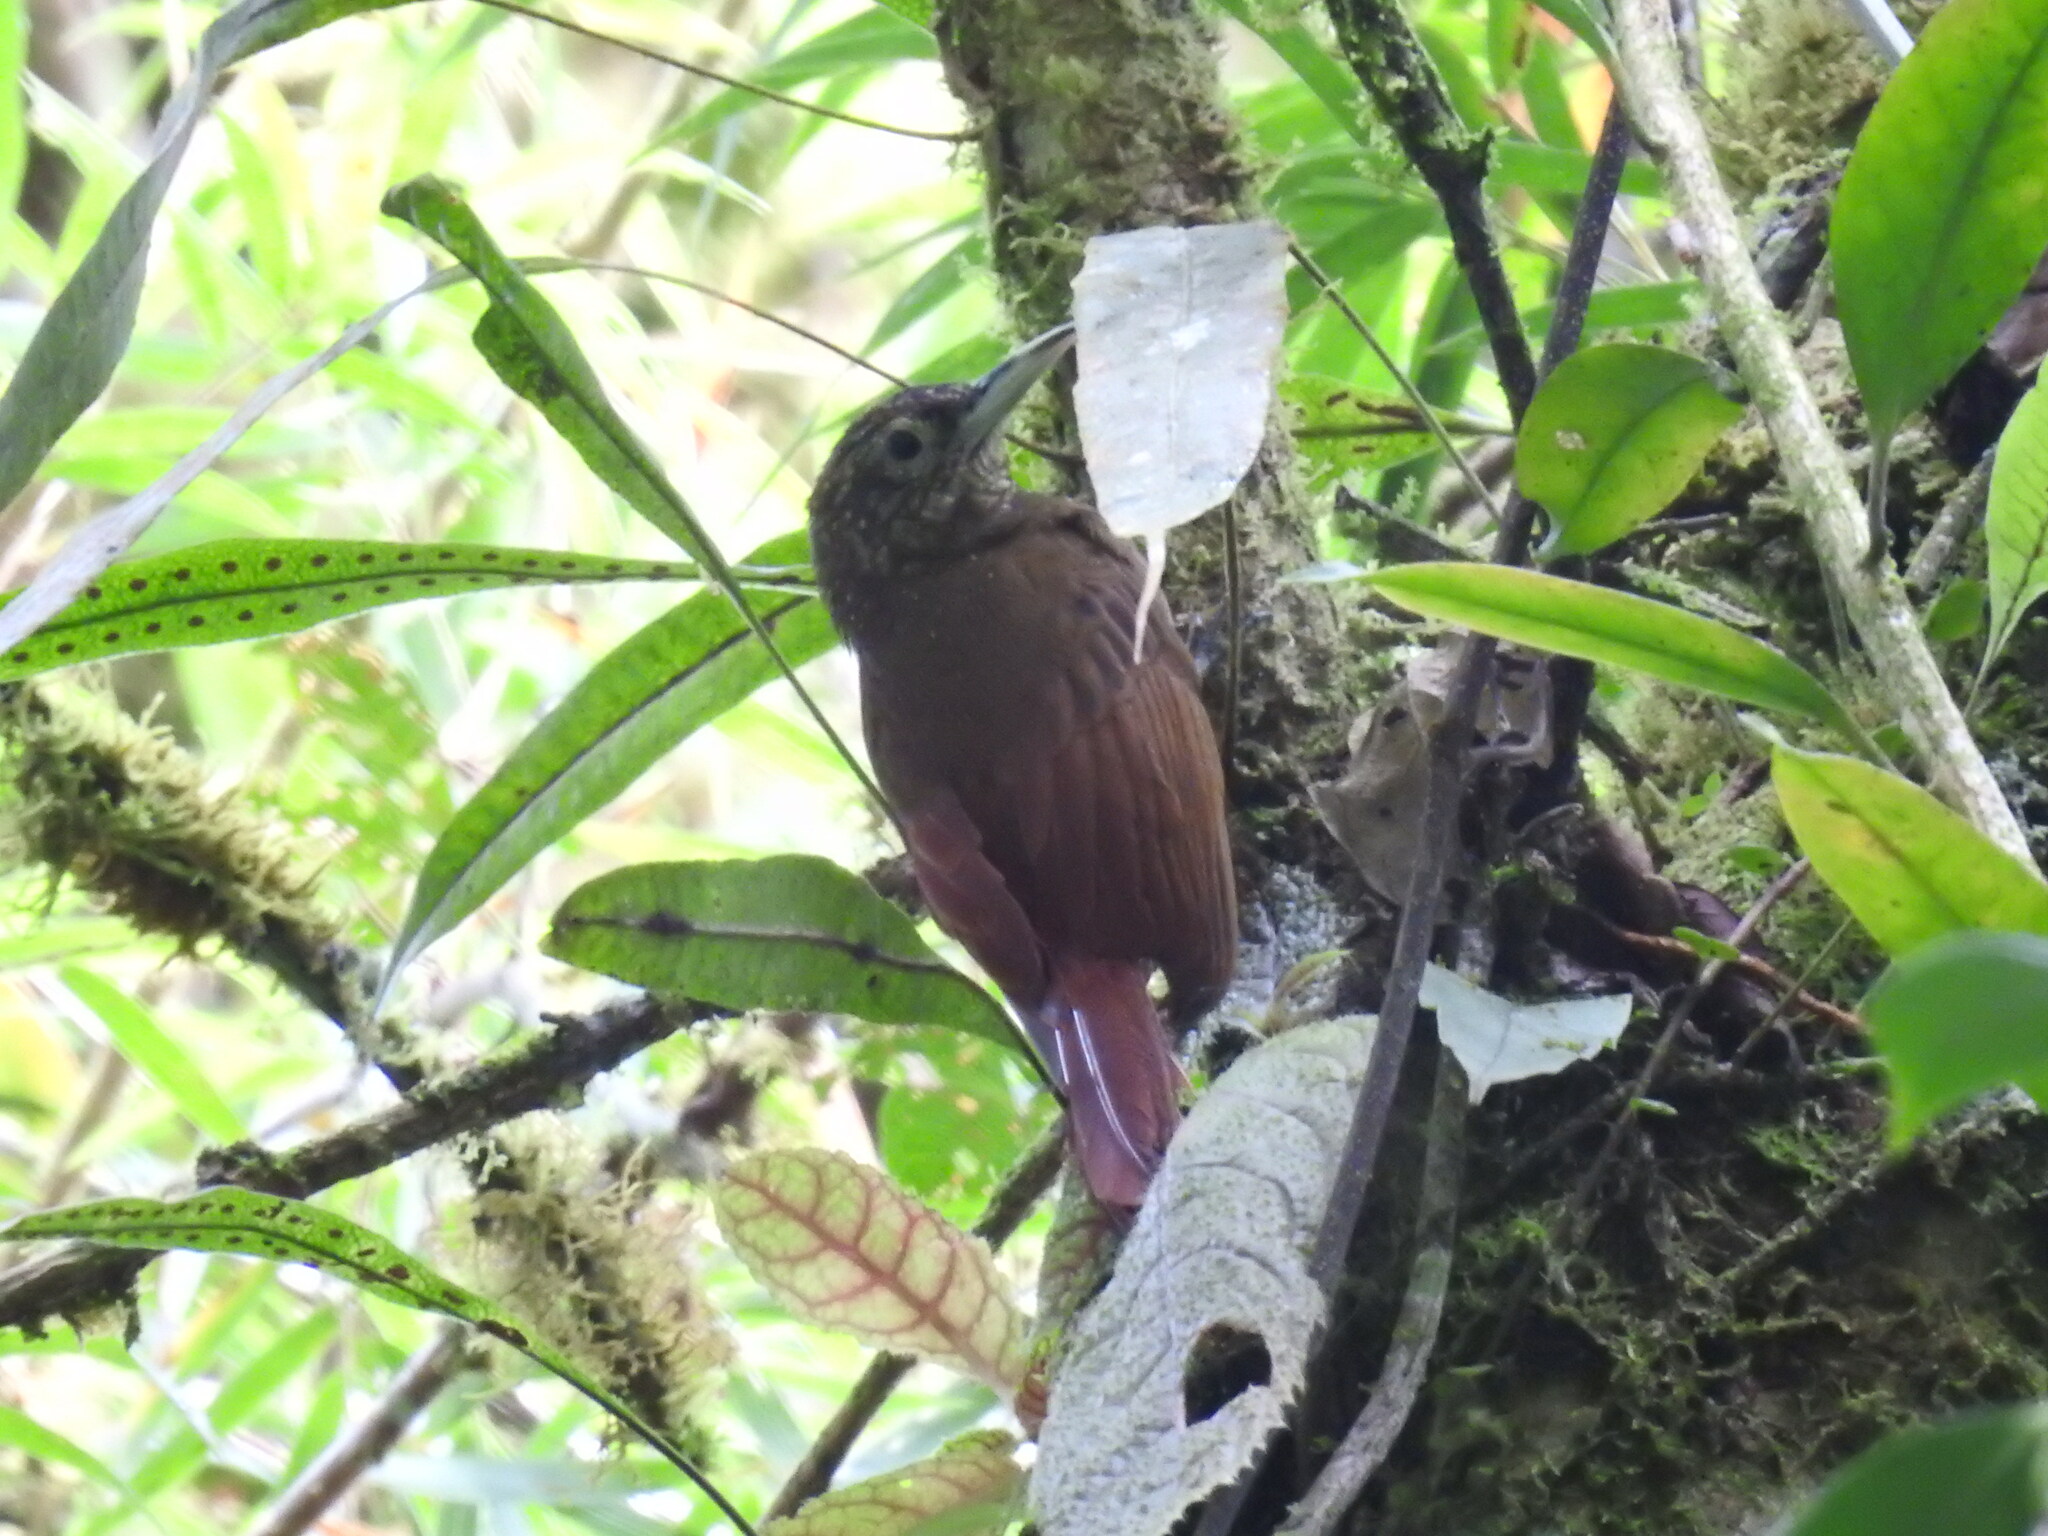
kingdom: Animalia
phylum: Chordata
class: Aves
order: Passeriformes
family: Furnariidae
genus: Xiphorhynchus
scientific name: Xiphorhynchus triangularis
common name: Olive-backed woodcreeper
